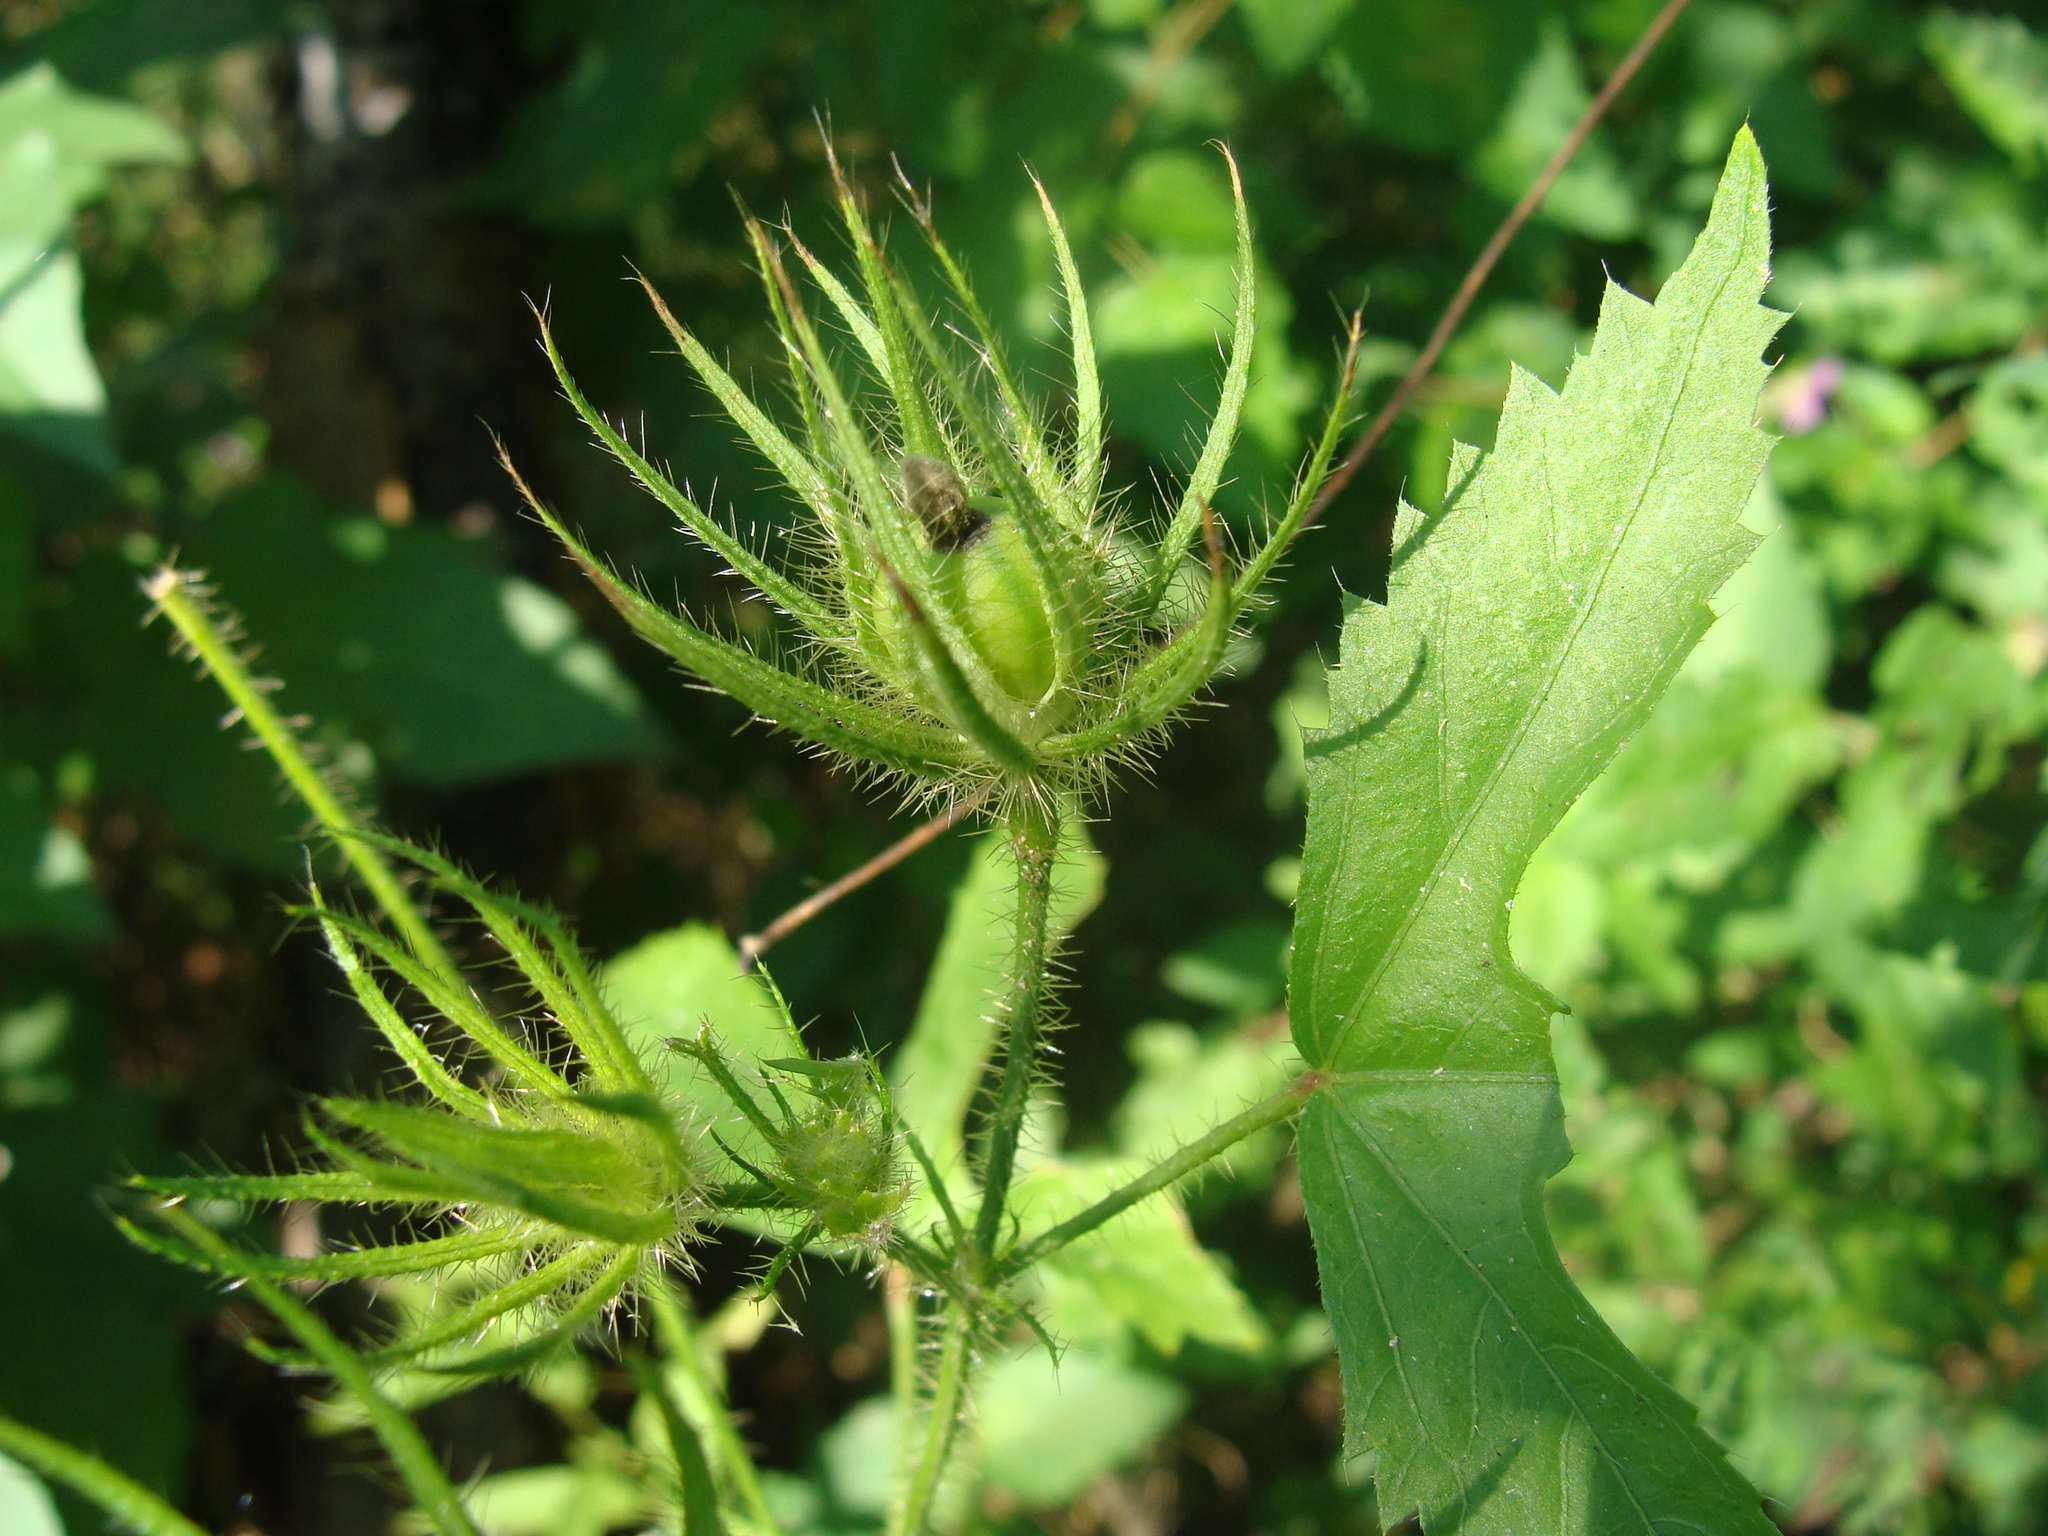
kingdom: Plantae
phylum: Tracheophyta
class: Magnoliopsida
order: Malvales
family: Malvaceae
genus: Hibiscus
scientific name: Hibiscus biseptus
